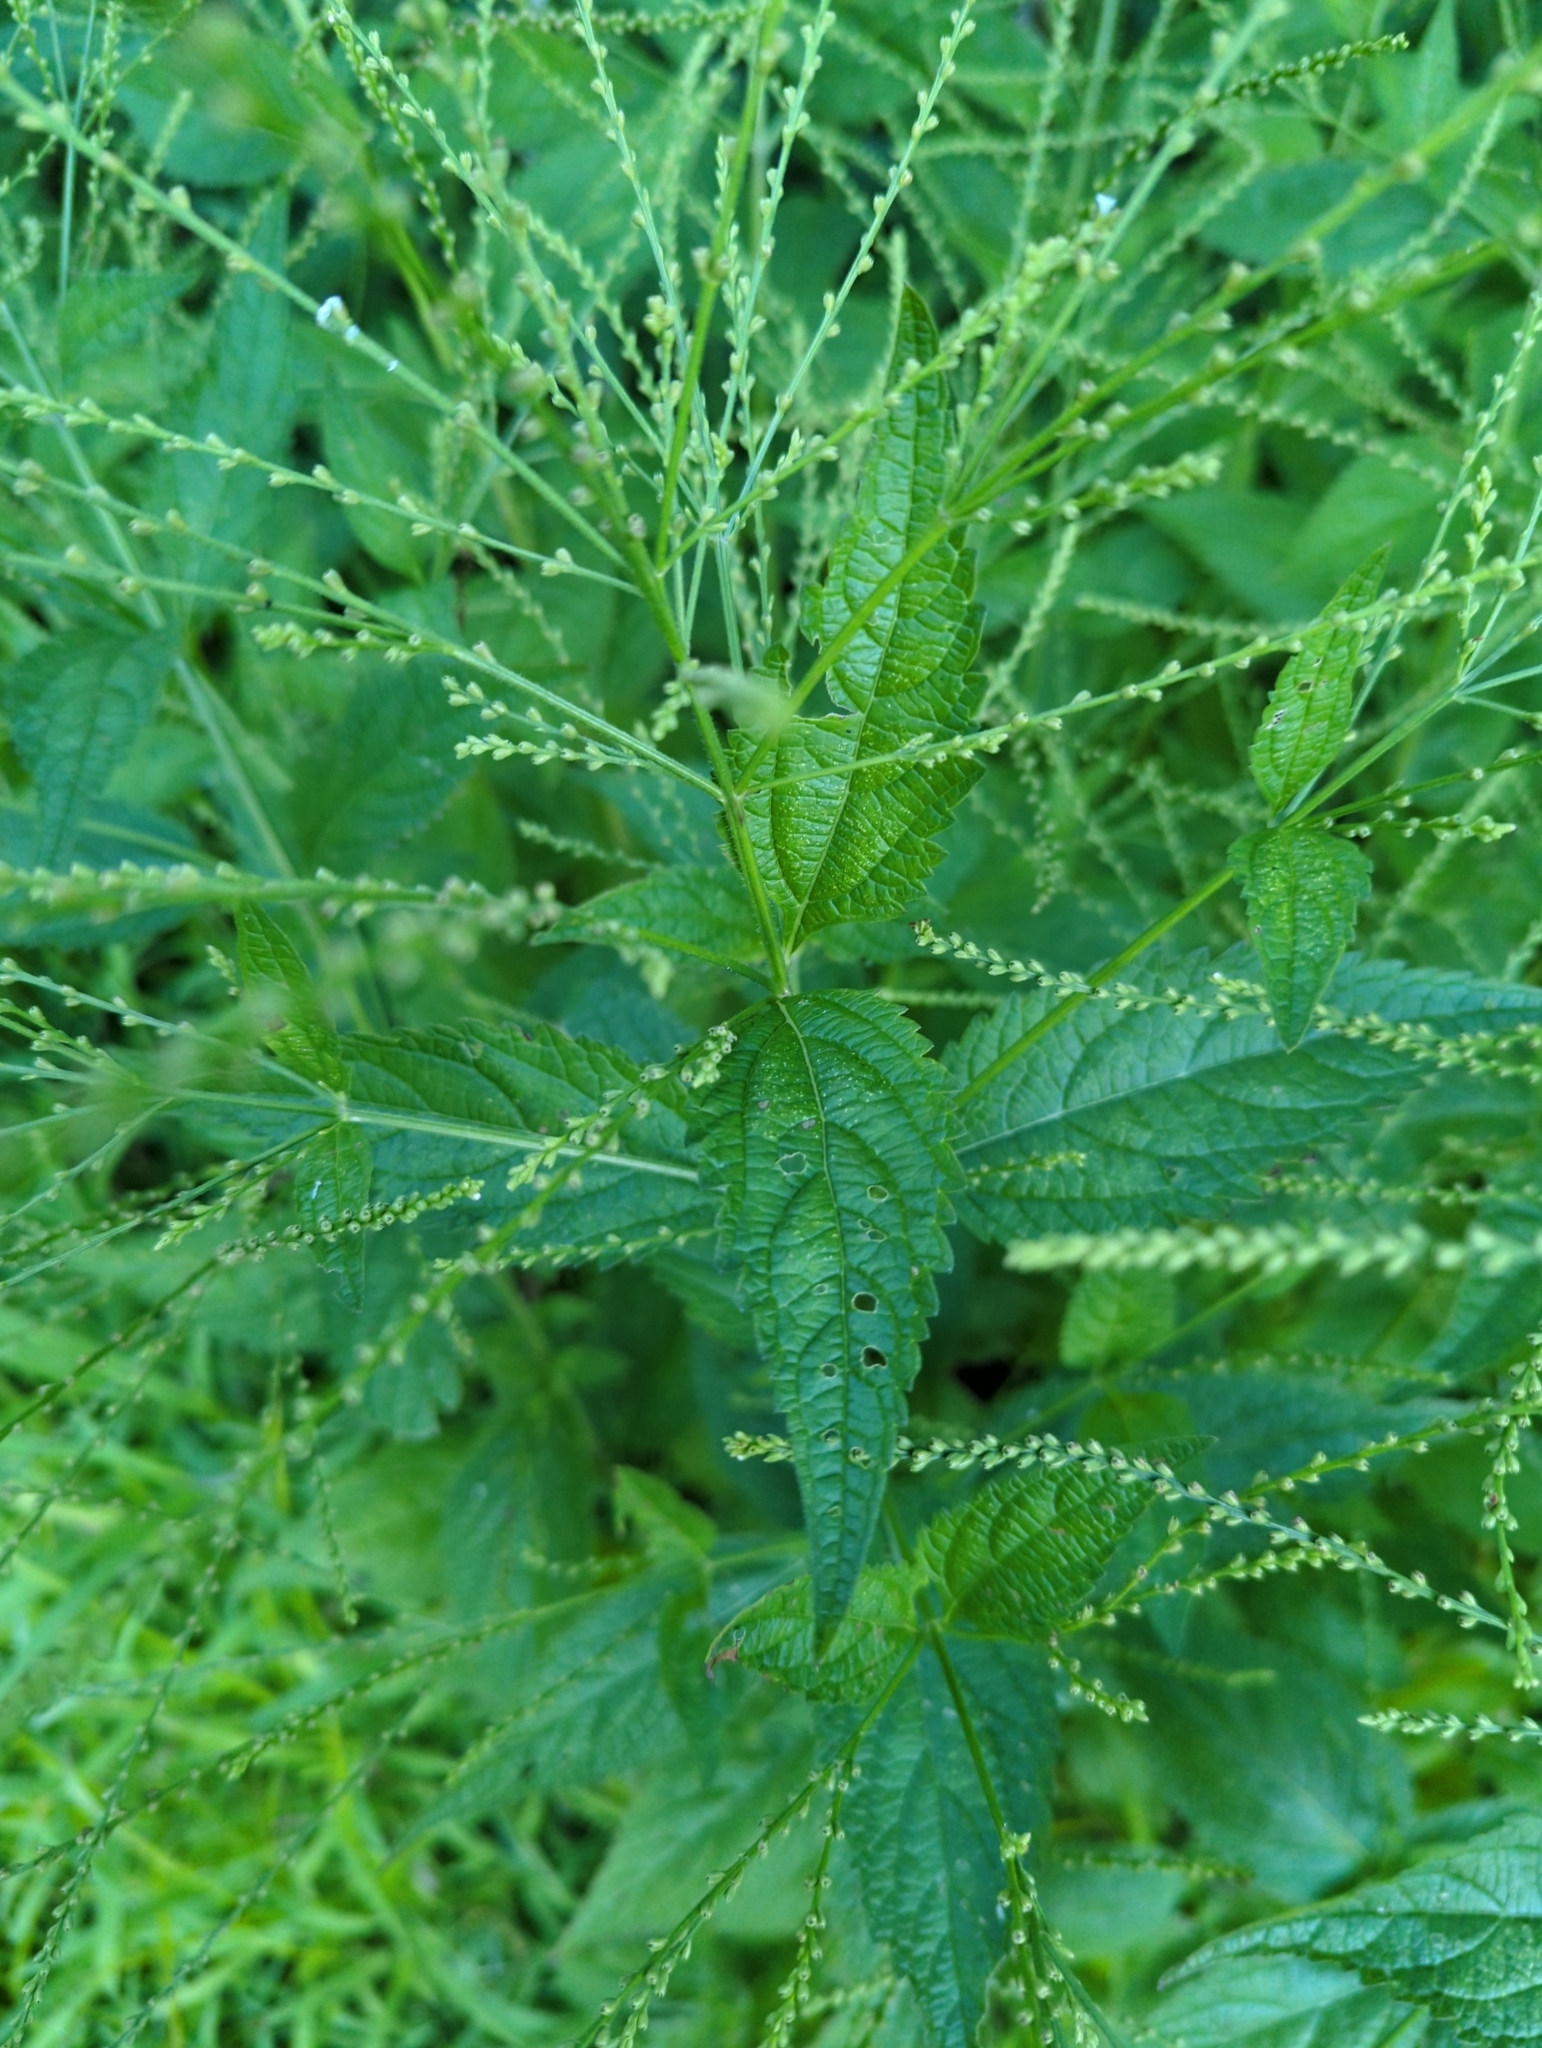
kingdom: Plantae
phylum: Tracheophyta
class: Magnoliopsida
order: Lamiales
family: Verbenaceae
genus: Verbena
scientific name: Verbena urticifolia
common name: Nettle-leaved vervain
